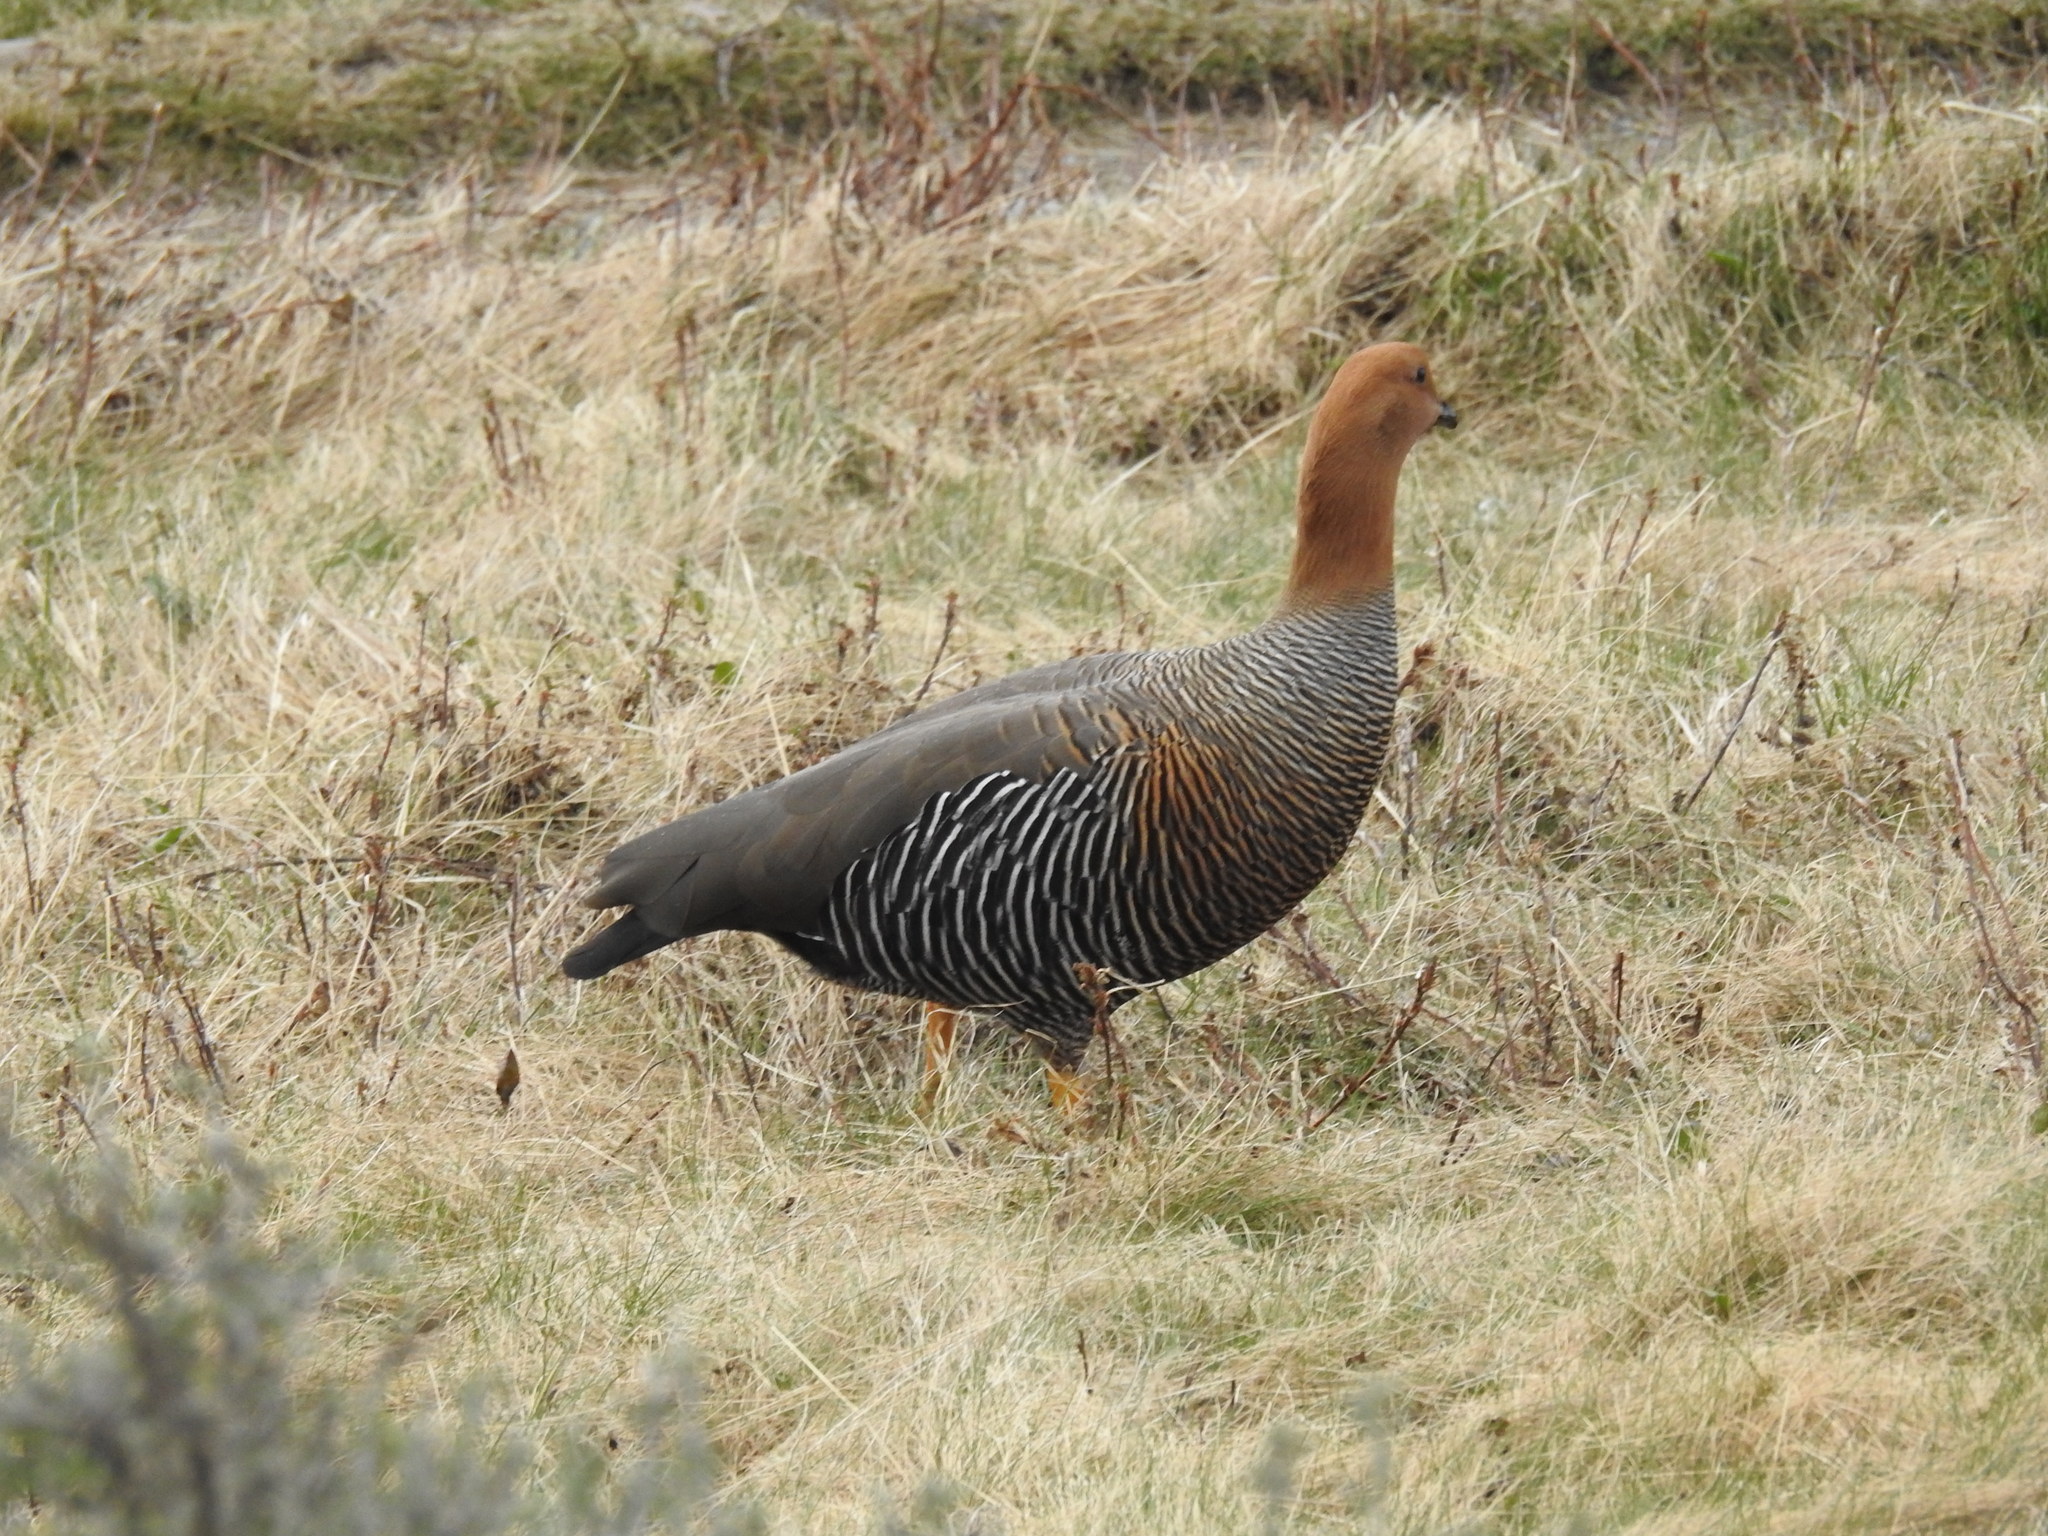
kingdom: Animalia
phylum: Chordata
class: Aves
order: Anseriformes
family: Anatidae
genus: Chloephaga
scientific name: Chloephaga picta
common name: Upland goose
